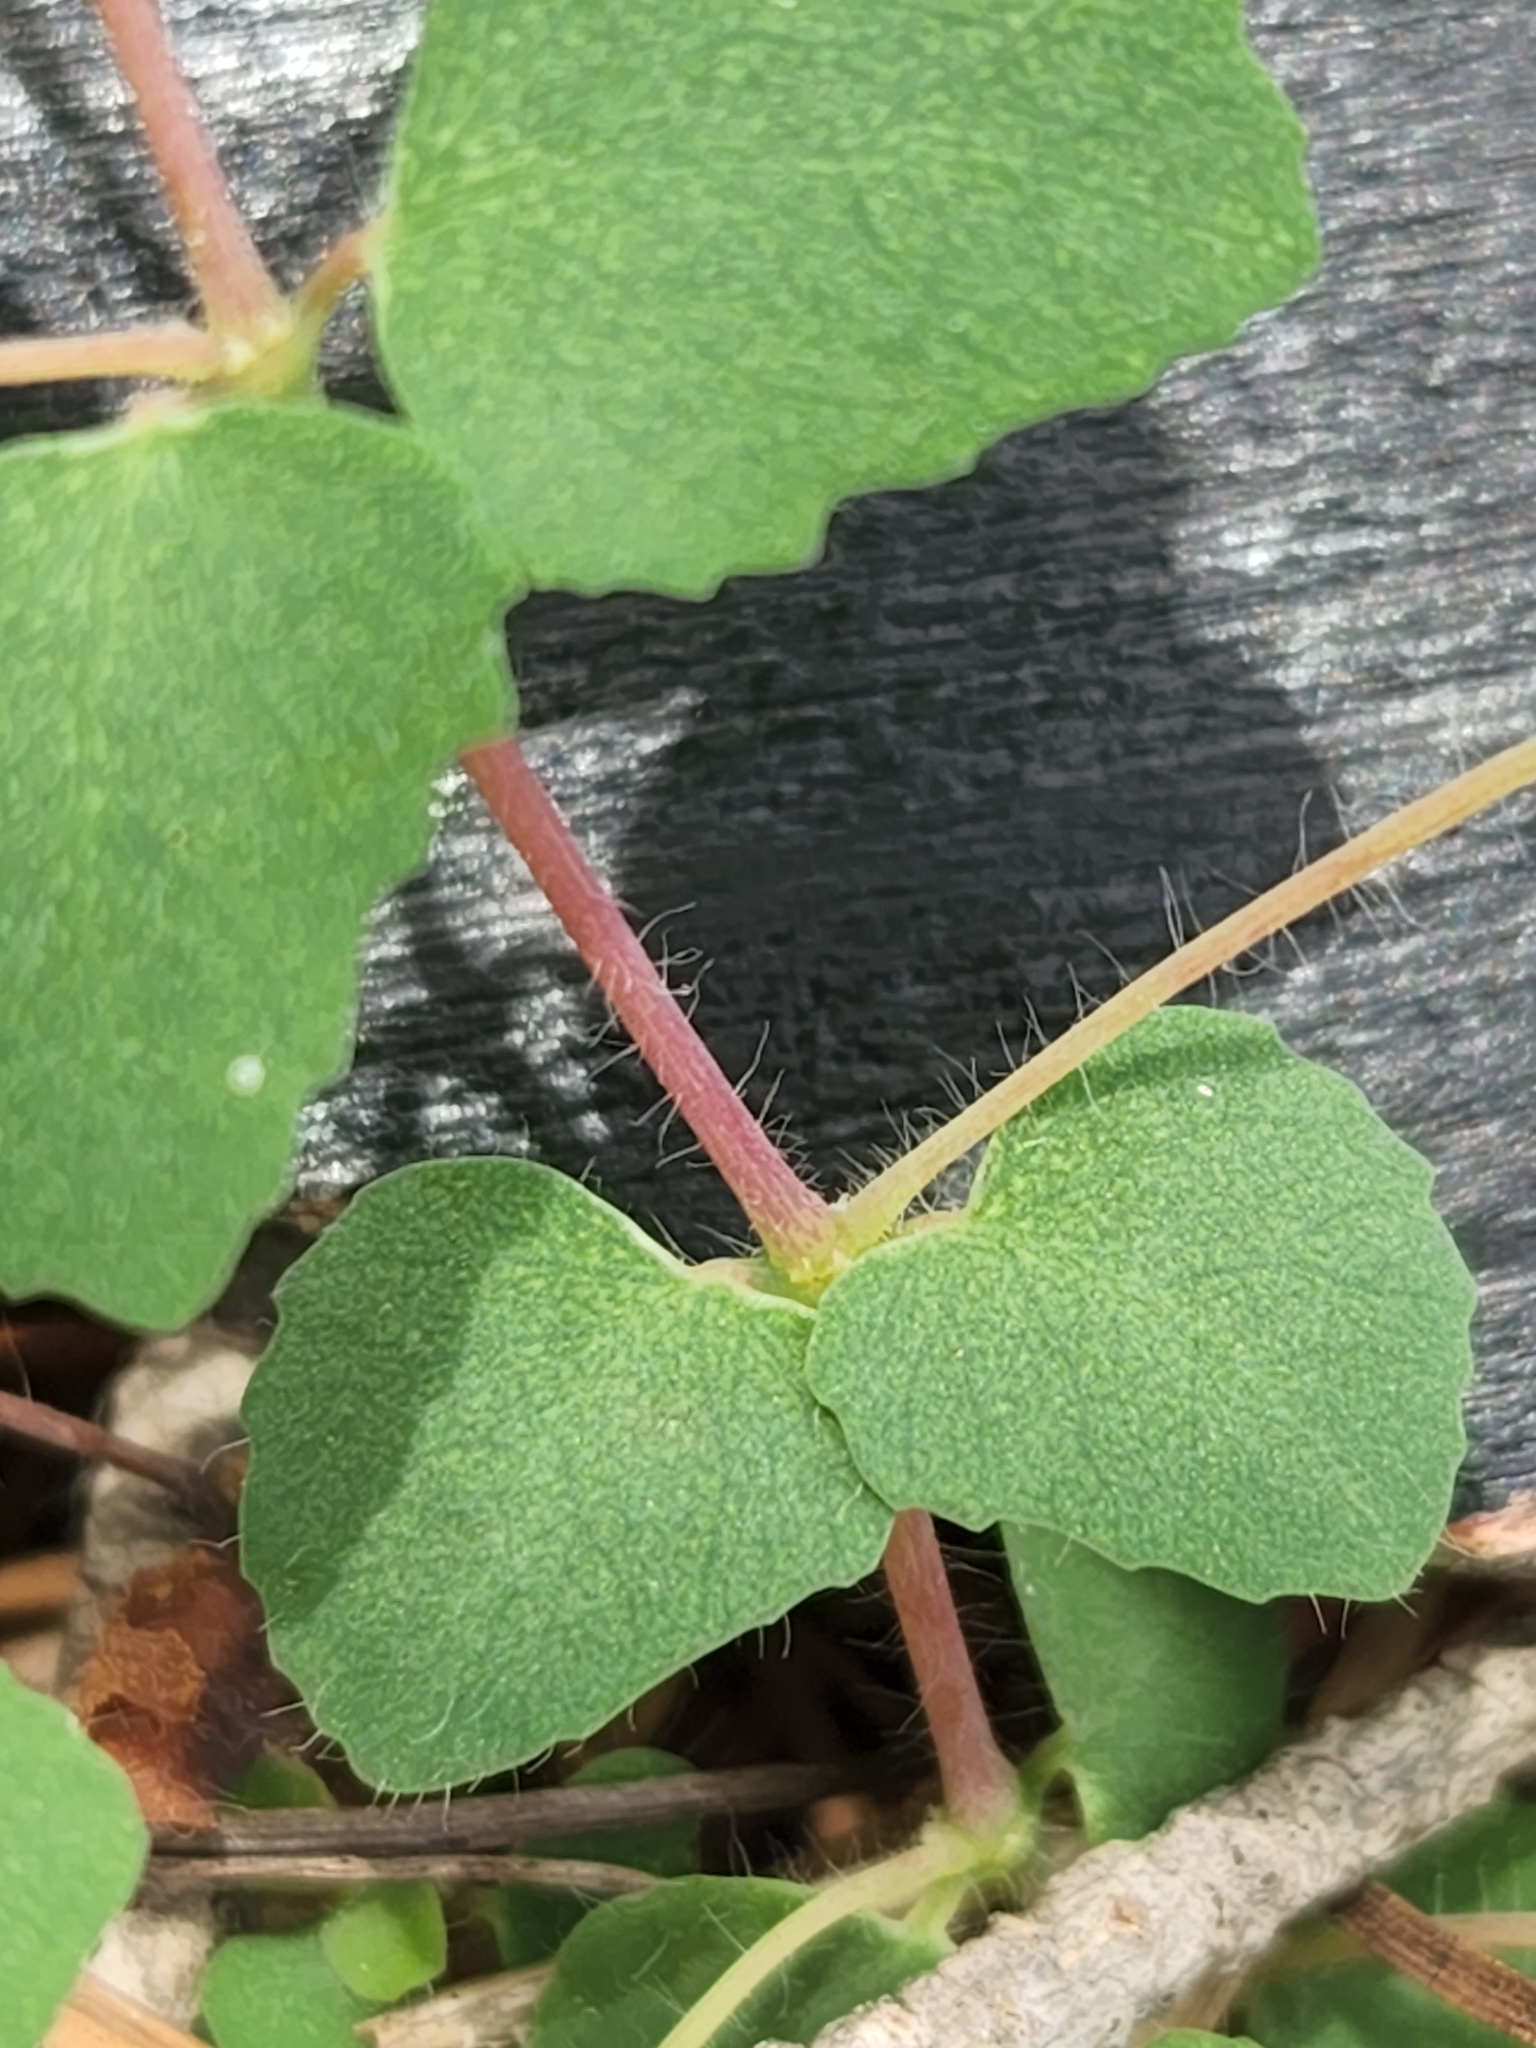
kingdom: Plantae
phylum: Tracheophyta
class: Magnoliopsida
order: Malpighiales
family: Euphorbiaceae
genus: Euphorbia
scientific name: Euphorbia villifera
